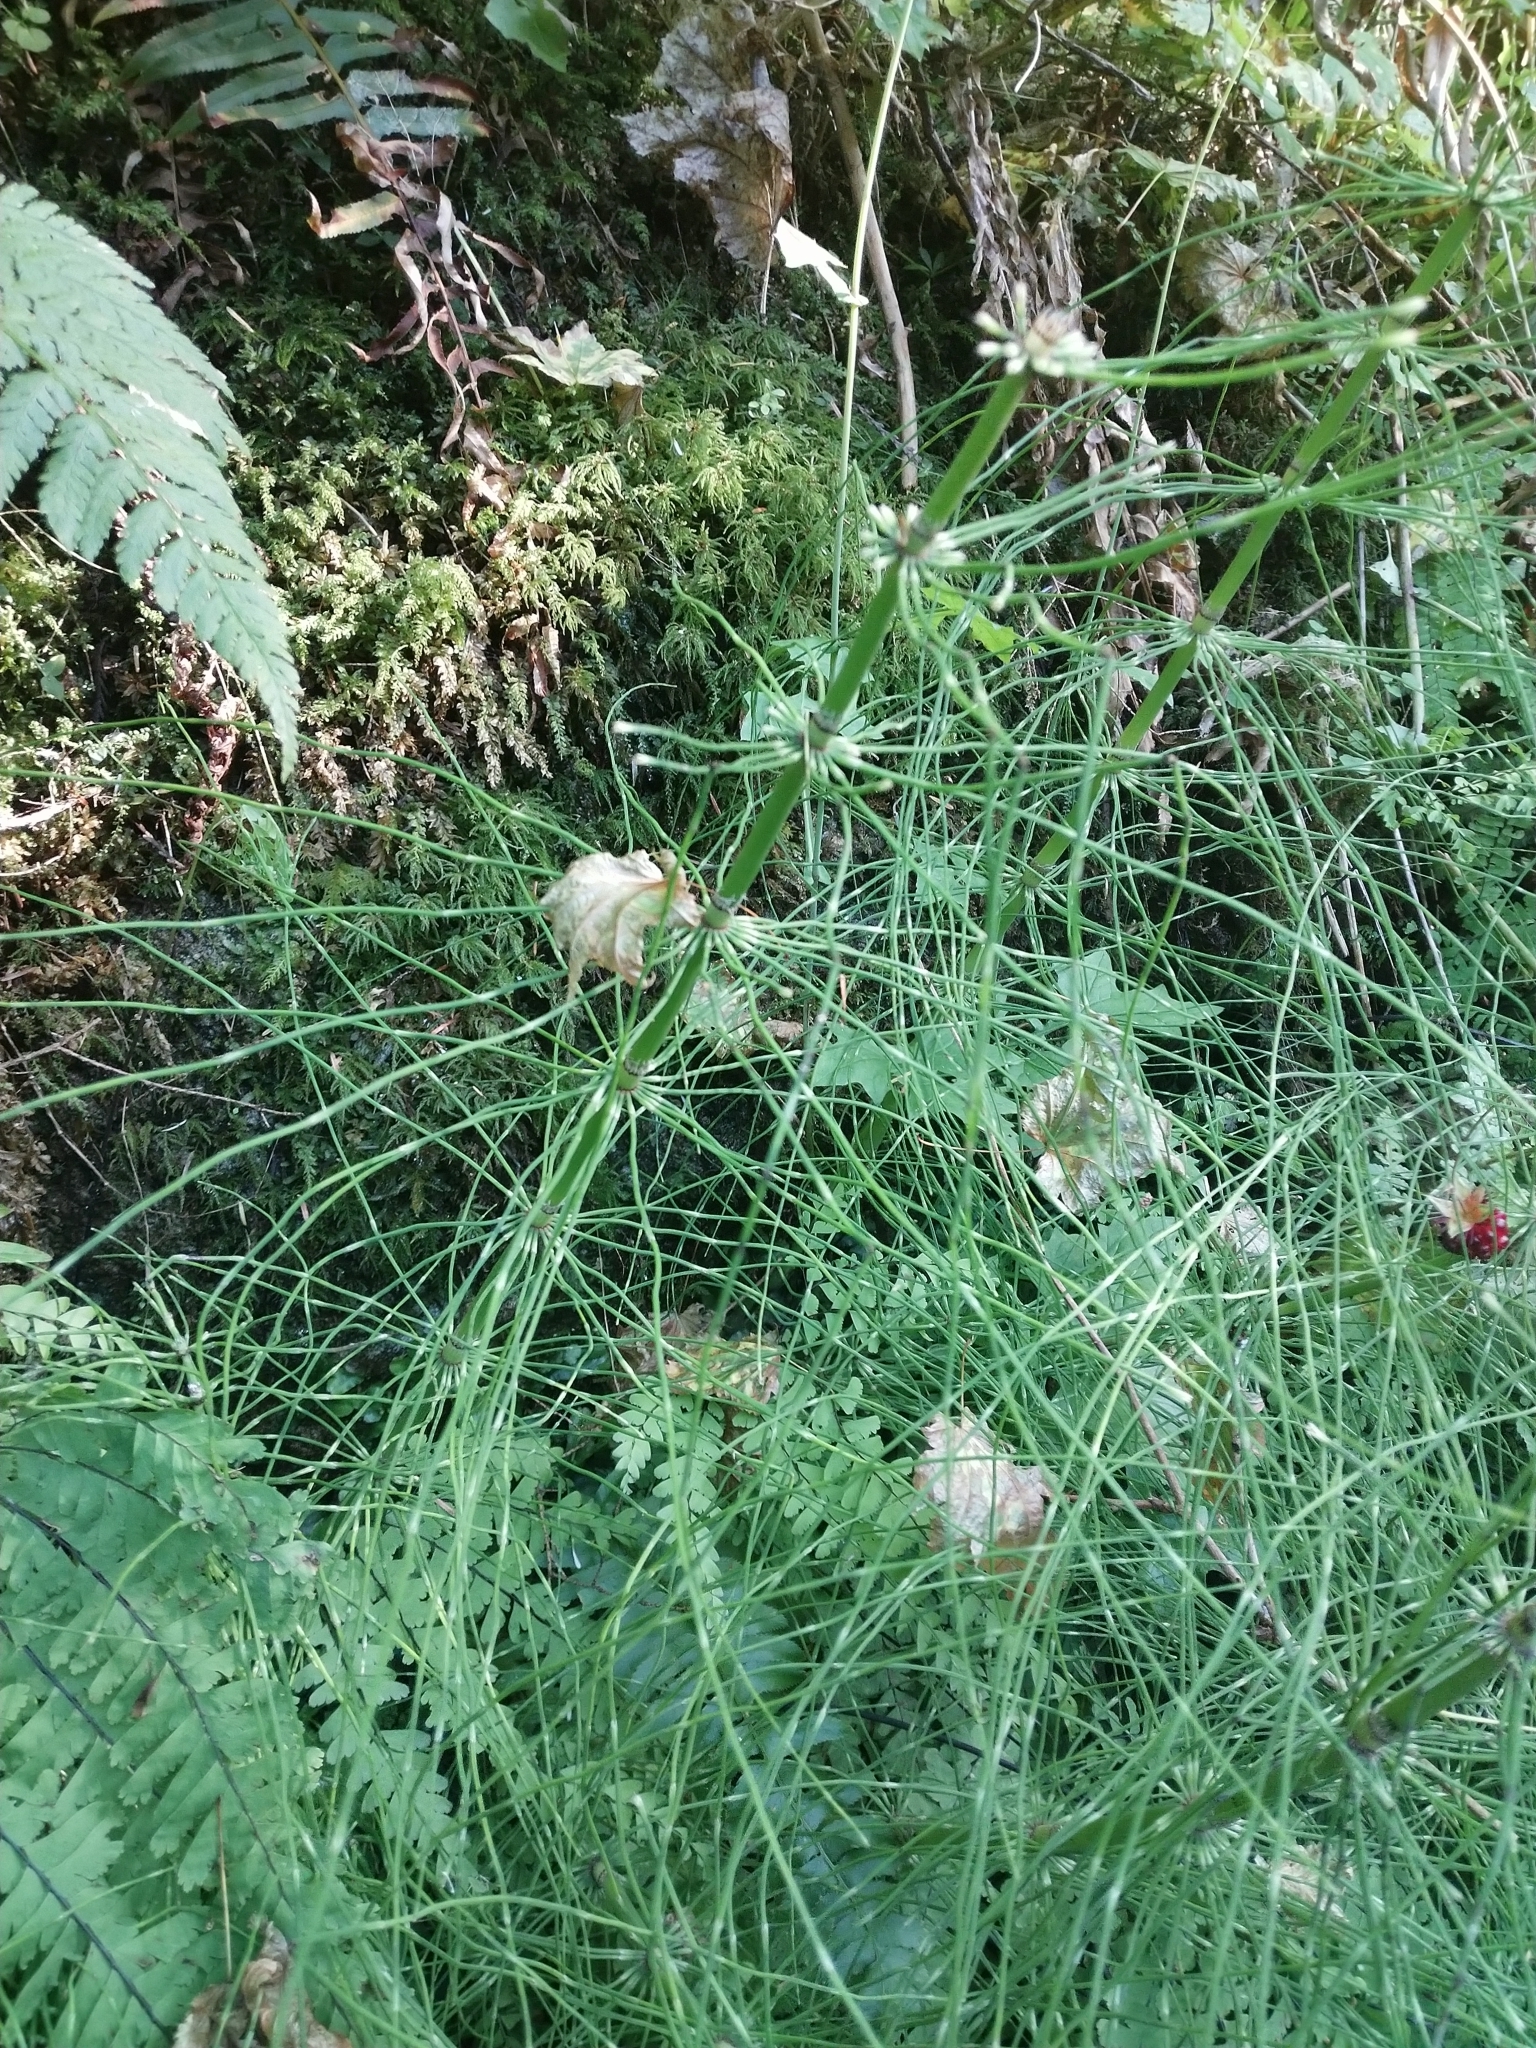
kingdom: Plantae
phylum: Tracheophyta
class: Polypodiopsida
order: Equisetales
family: Equisetaceae
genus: Equisetum
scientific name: Equisetum telmateia
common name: Great horsetail
